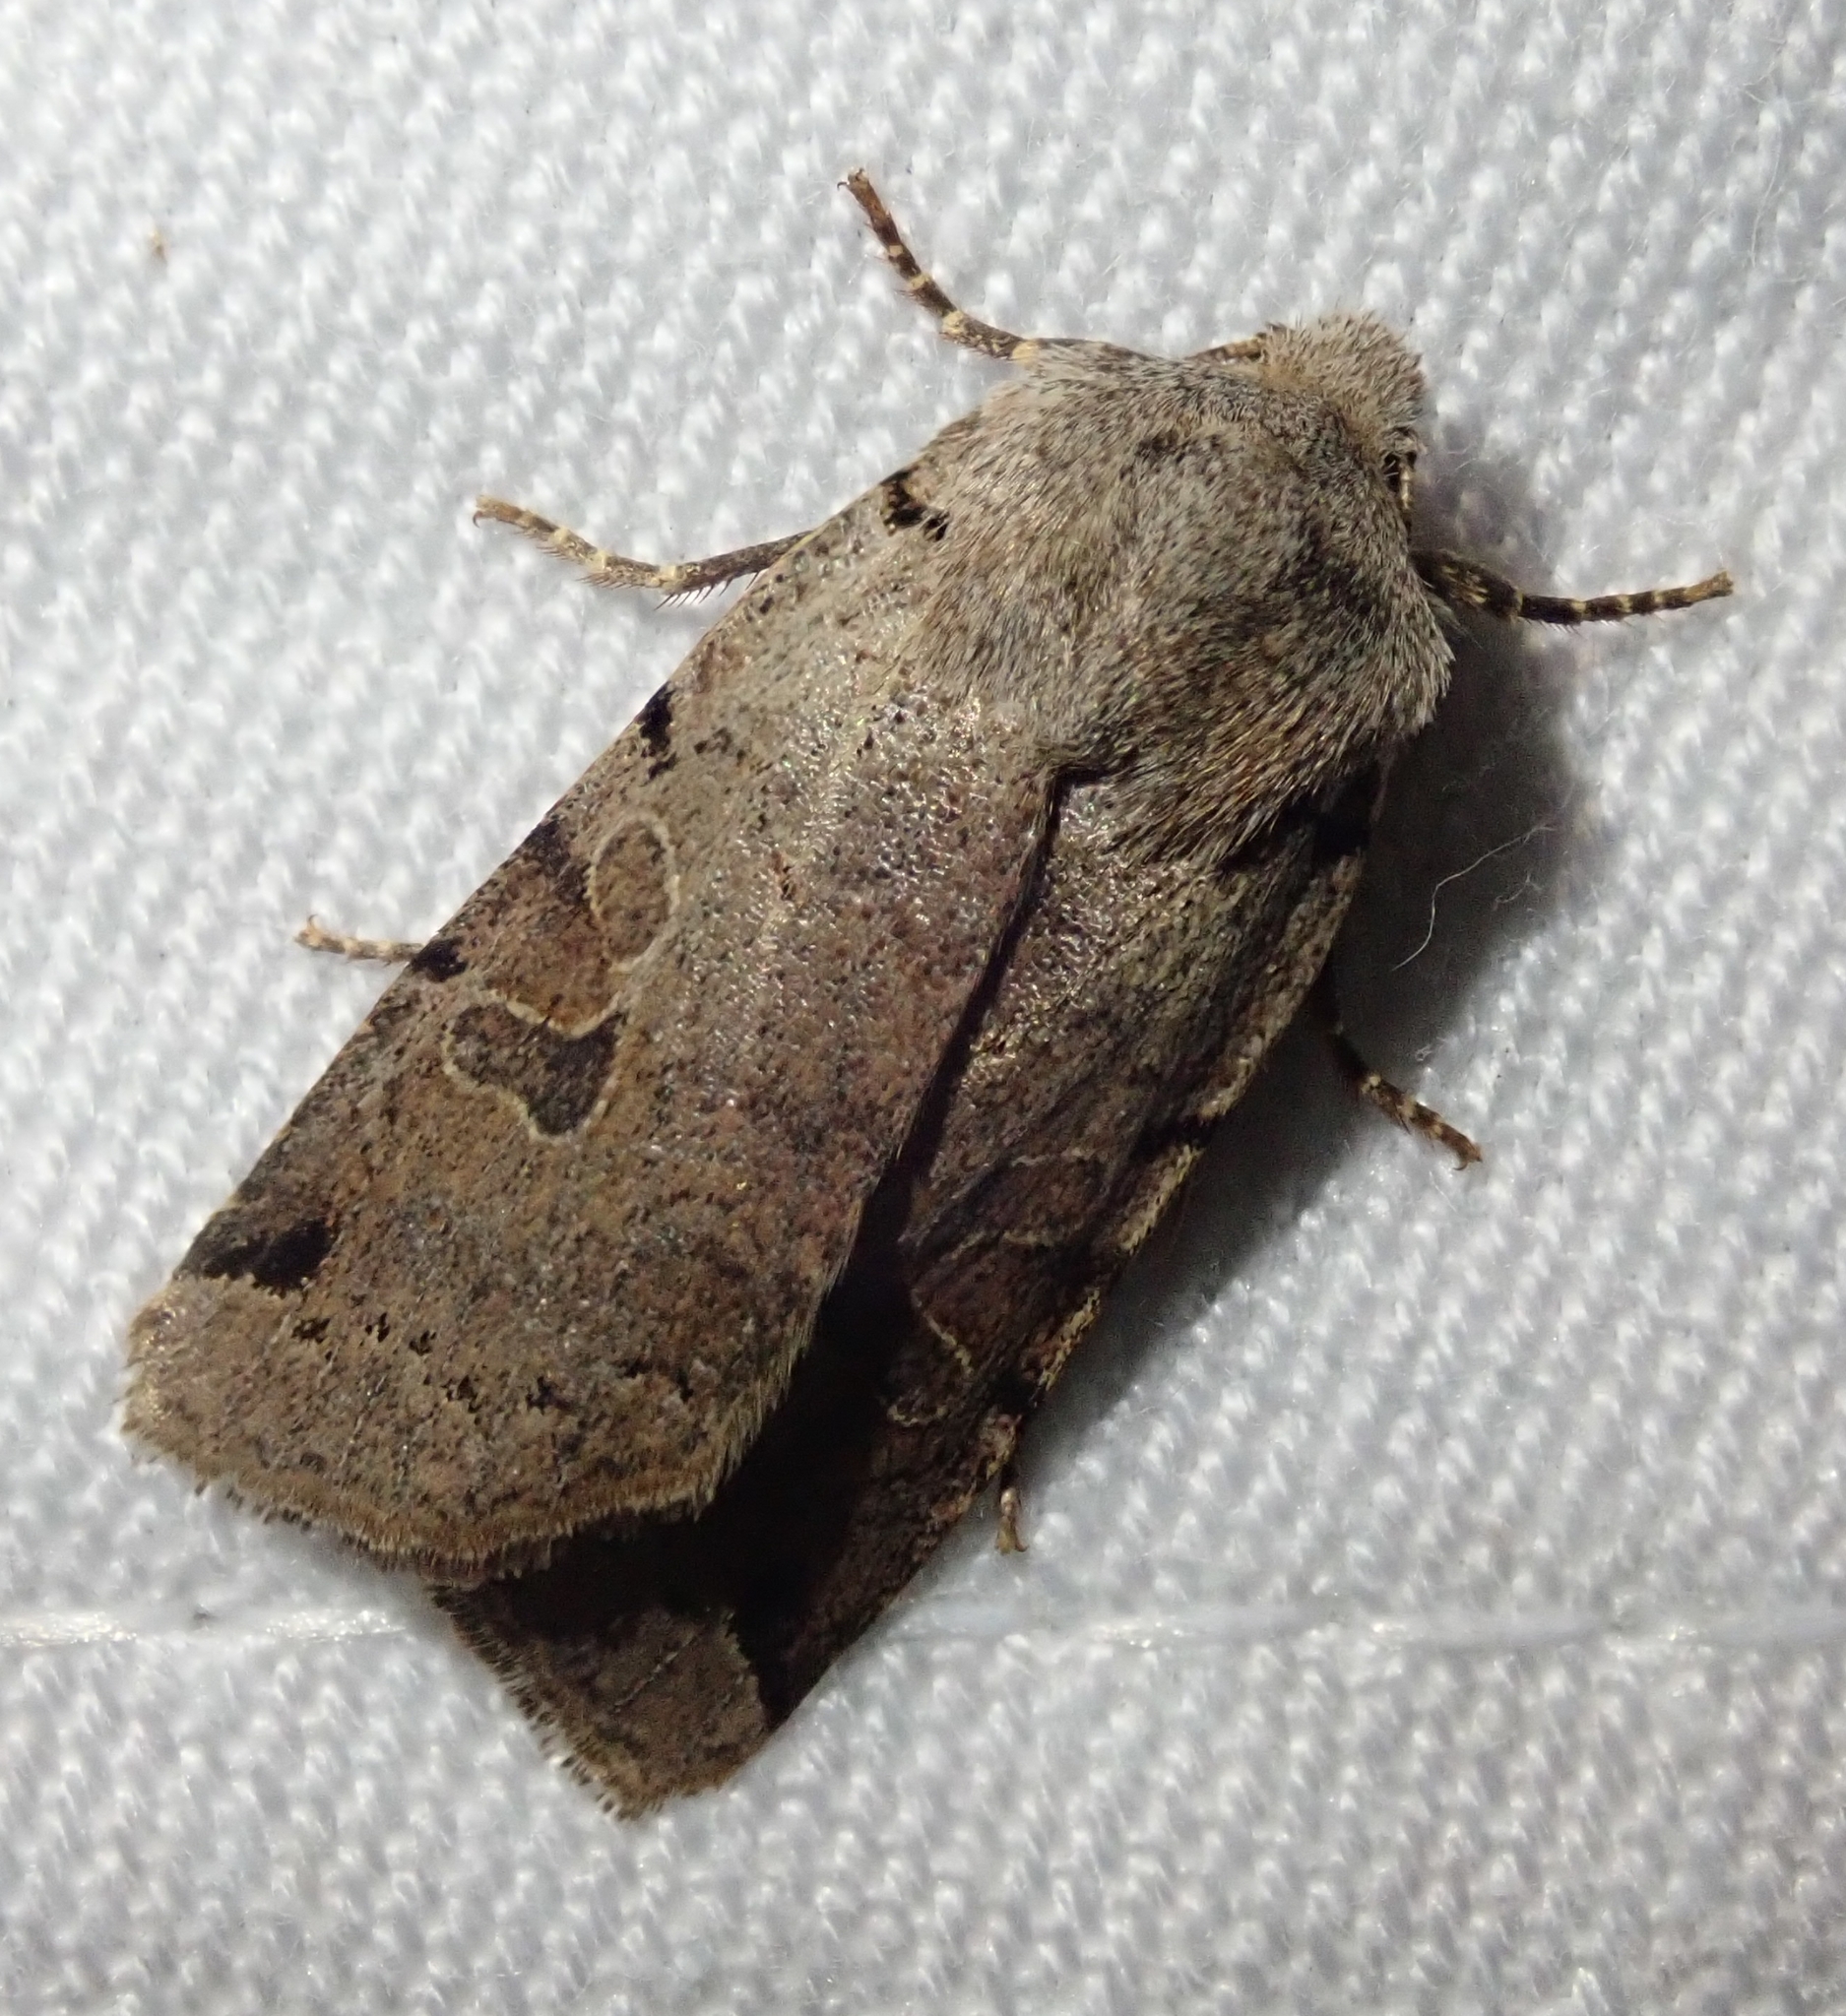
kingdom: Animalia
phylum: Arthropoda
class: Insecta
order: Lepidoptera
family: Noctuidae
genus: Agrochola
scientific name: Agrochola litura
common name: Brown-spot pinion
